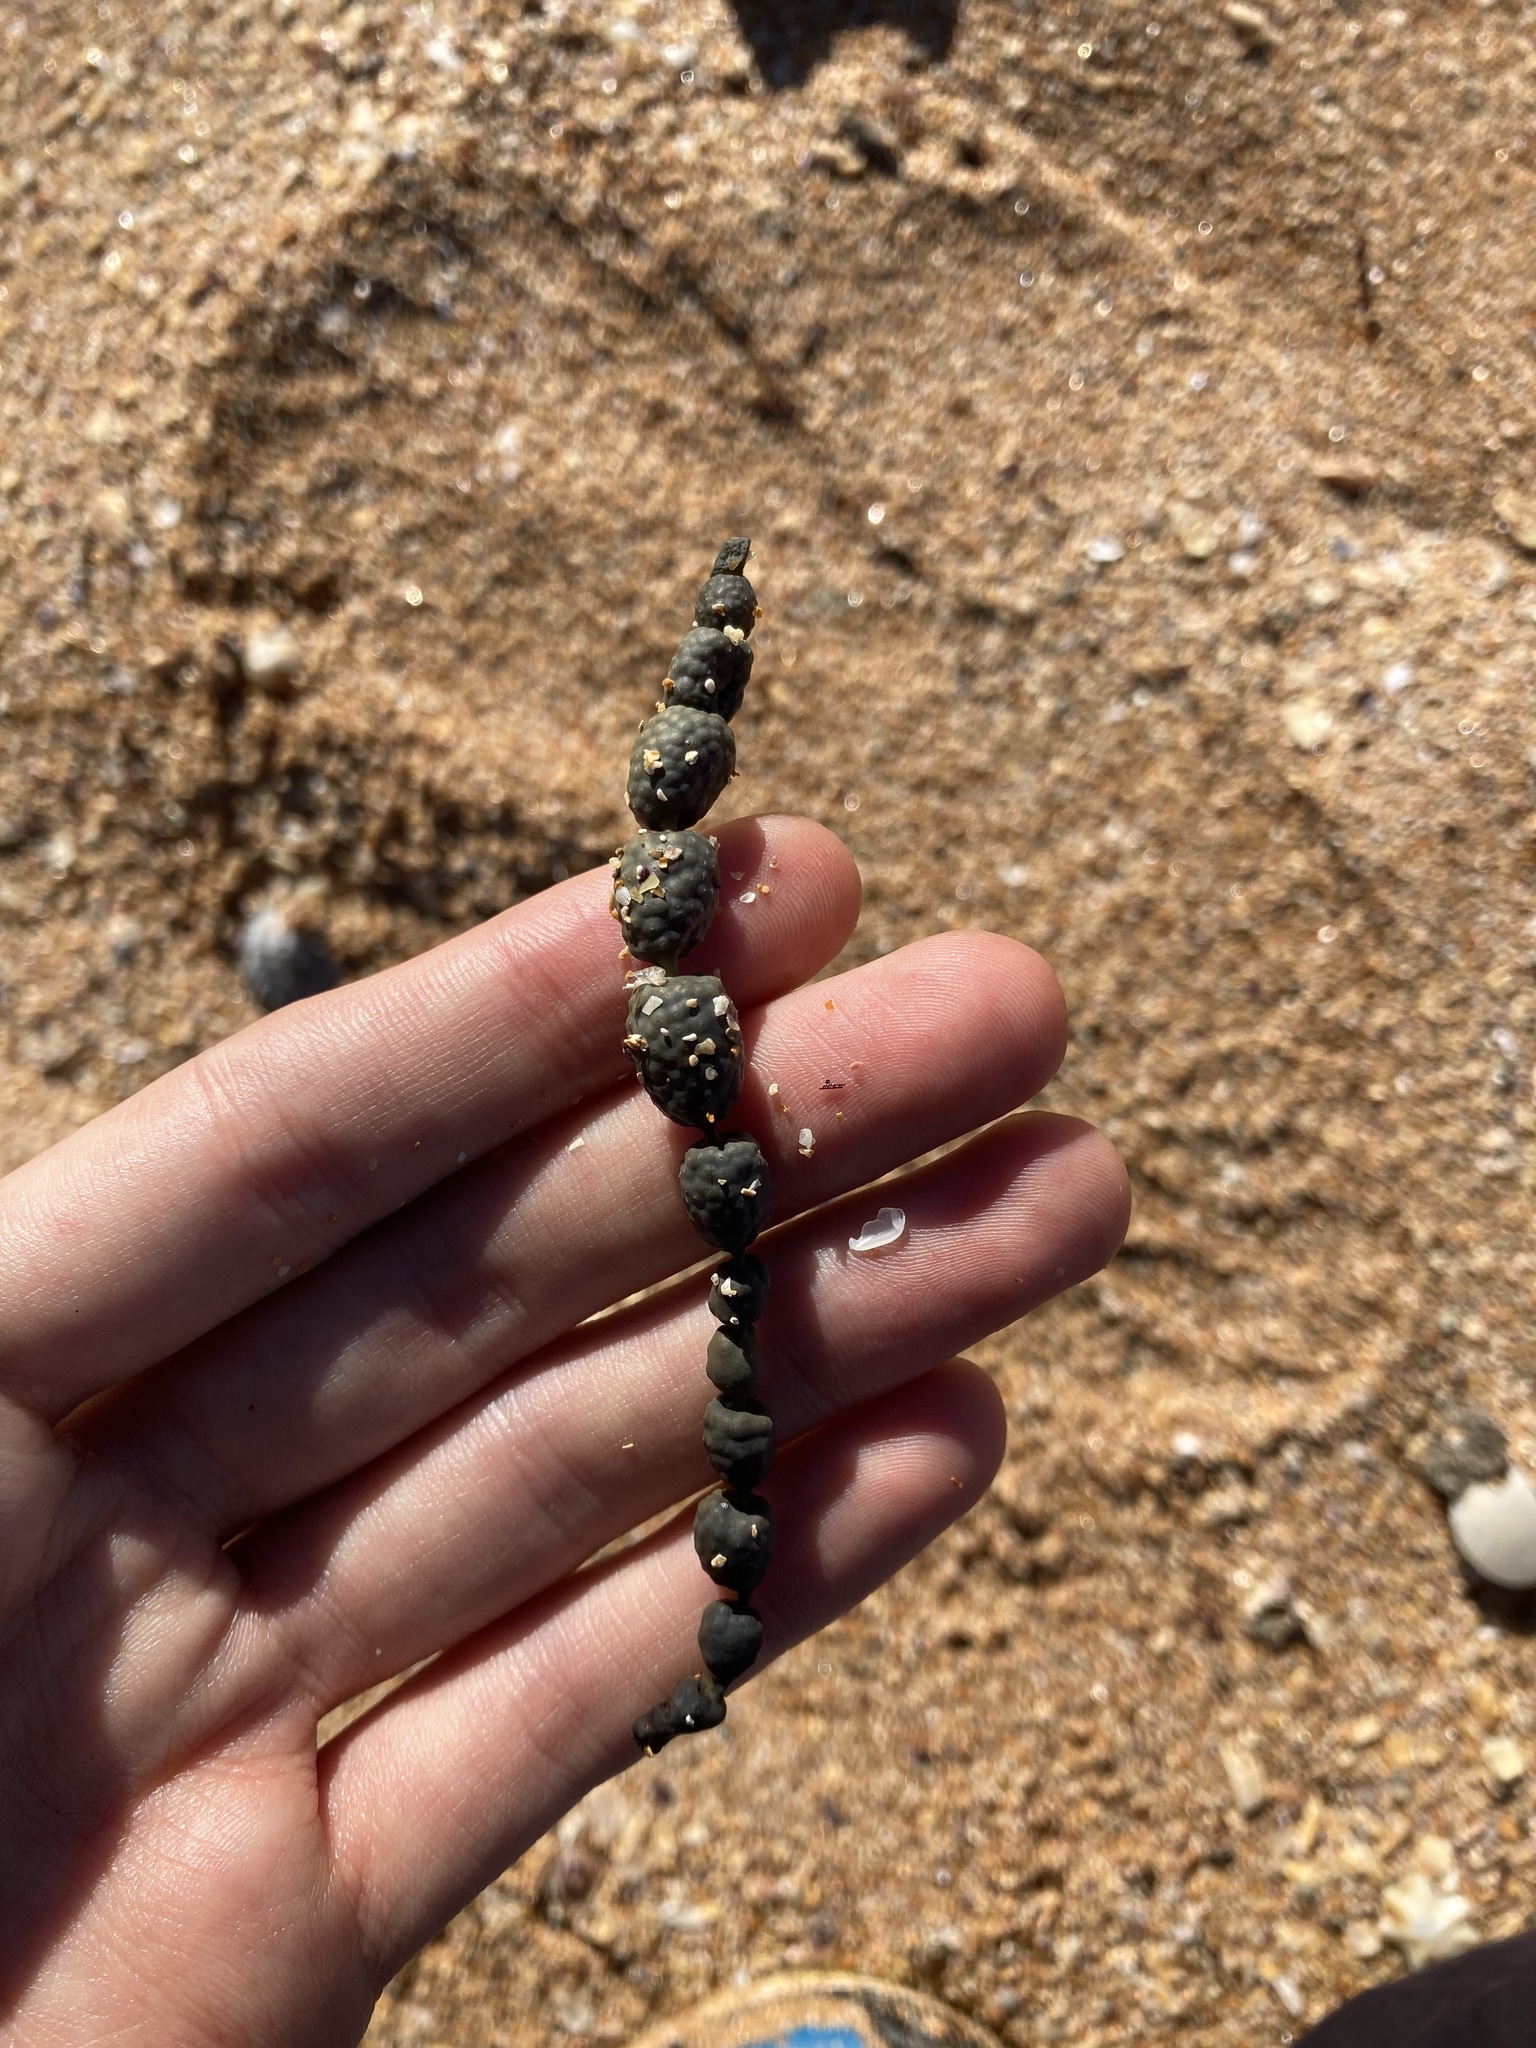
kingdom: Chromista
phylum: Ochrophyta
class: Phaeophyceae
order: Fucales
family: Hormosiraceae
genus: Hormosira
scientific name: Hormosira banksii
